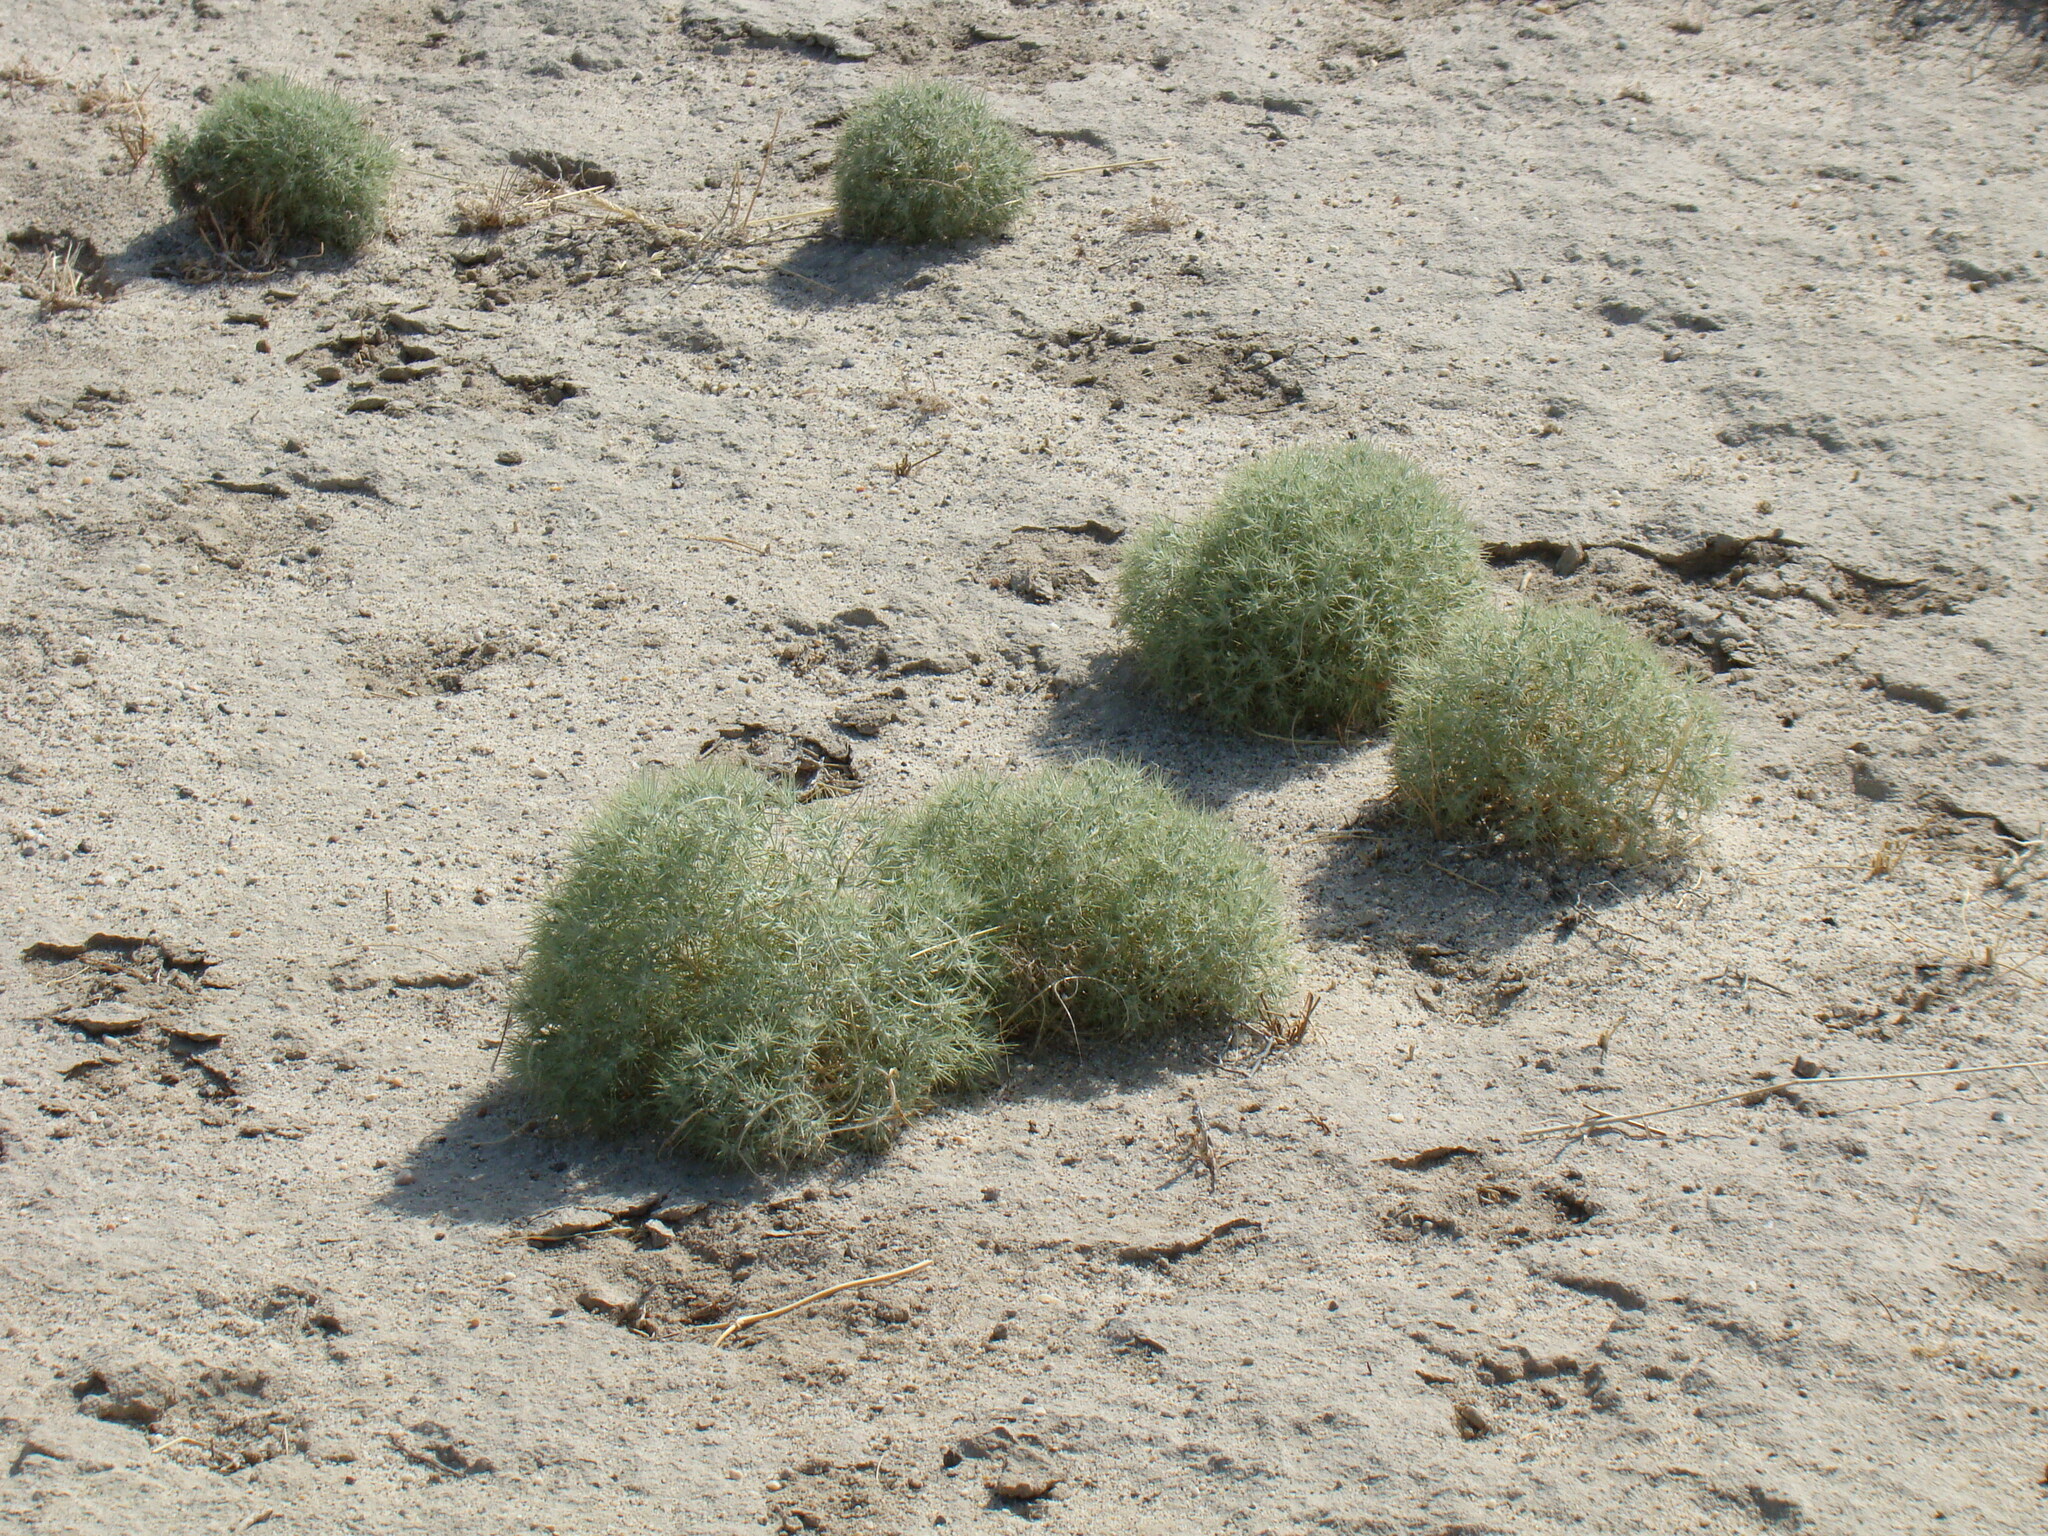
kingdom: Plantae
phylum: Tracheophyta
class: Magnoliopsida
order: Caryophyllales
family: Amaranthaceae
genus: Ceratocarpus
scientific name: Ceratocarpus arenarius
